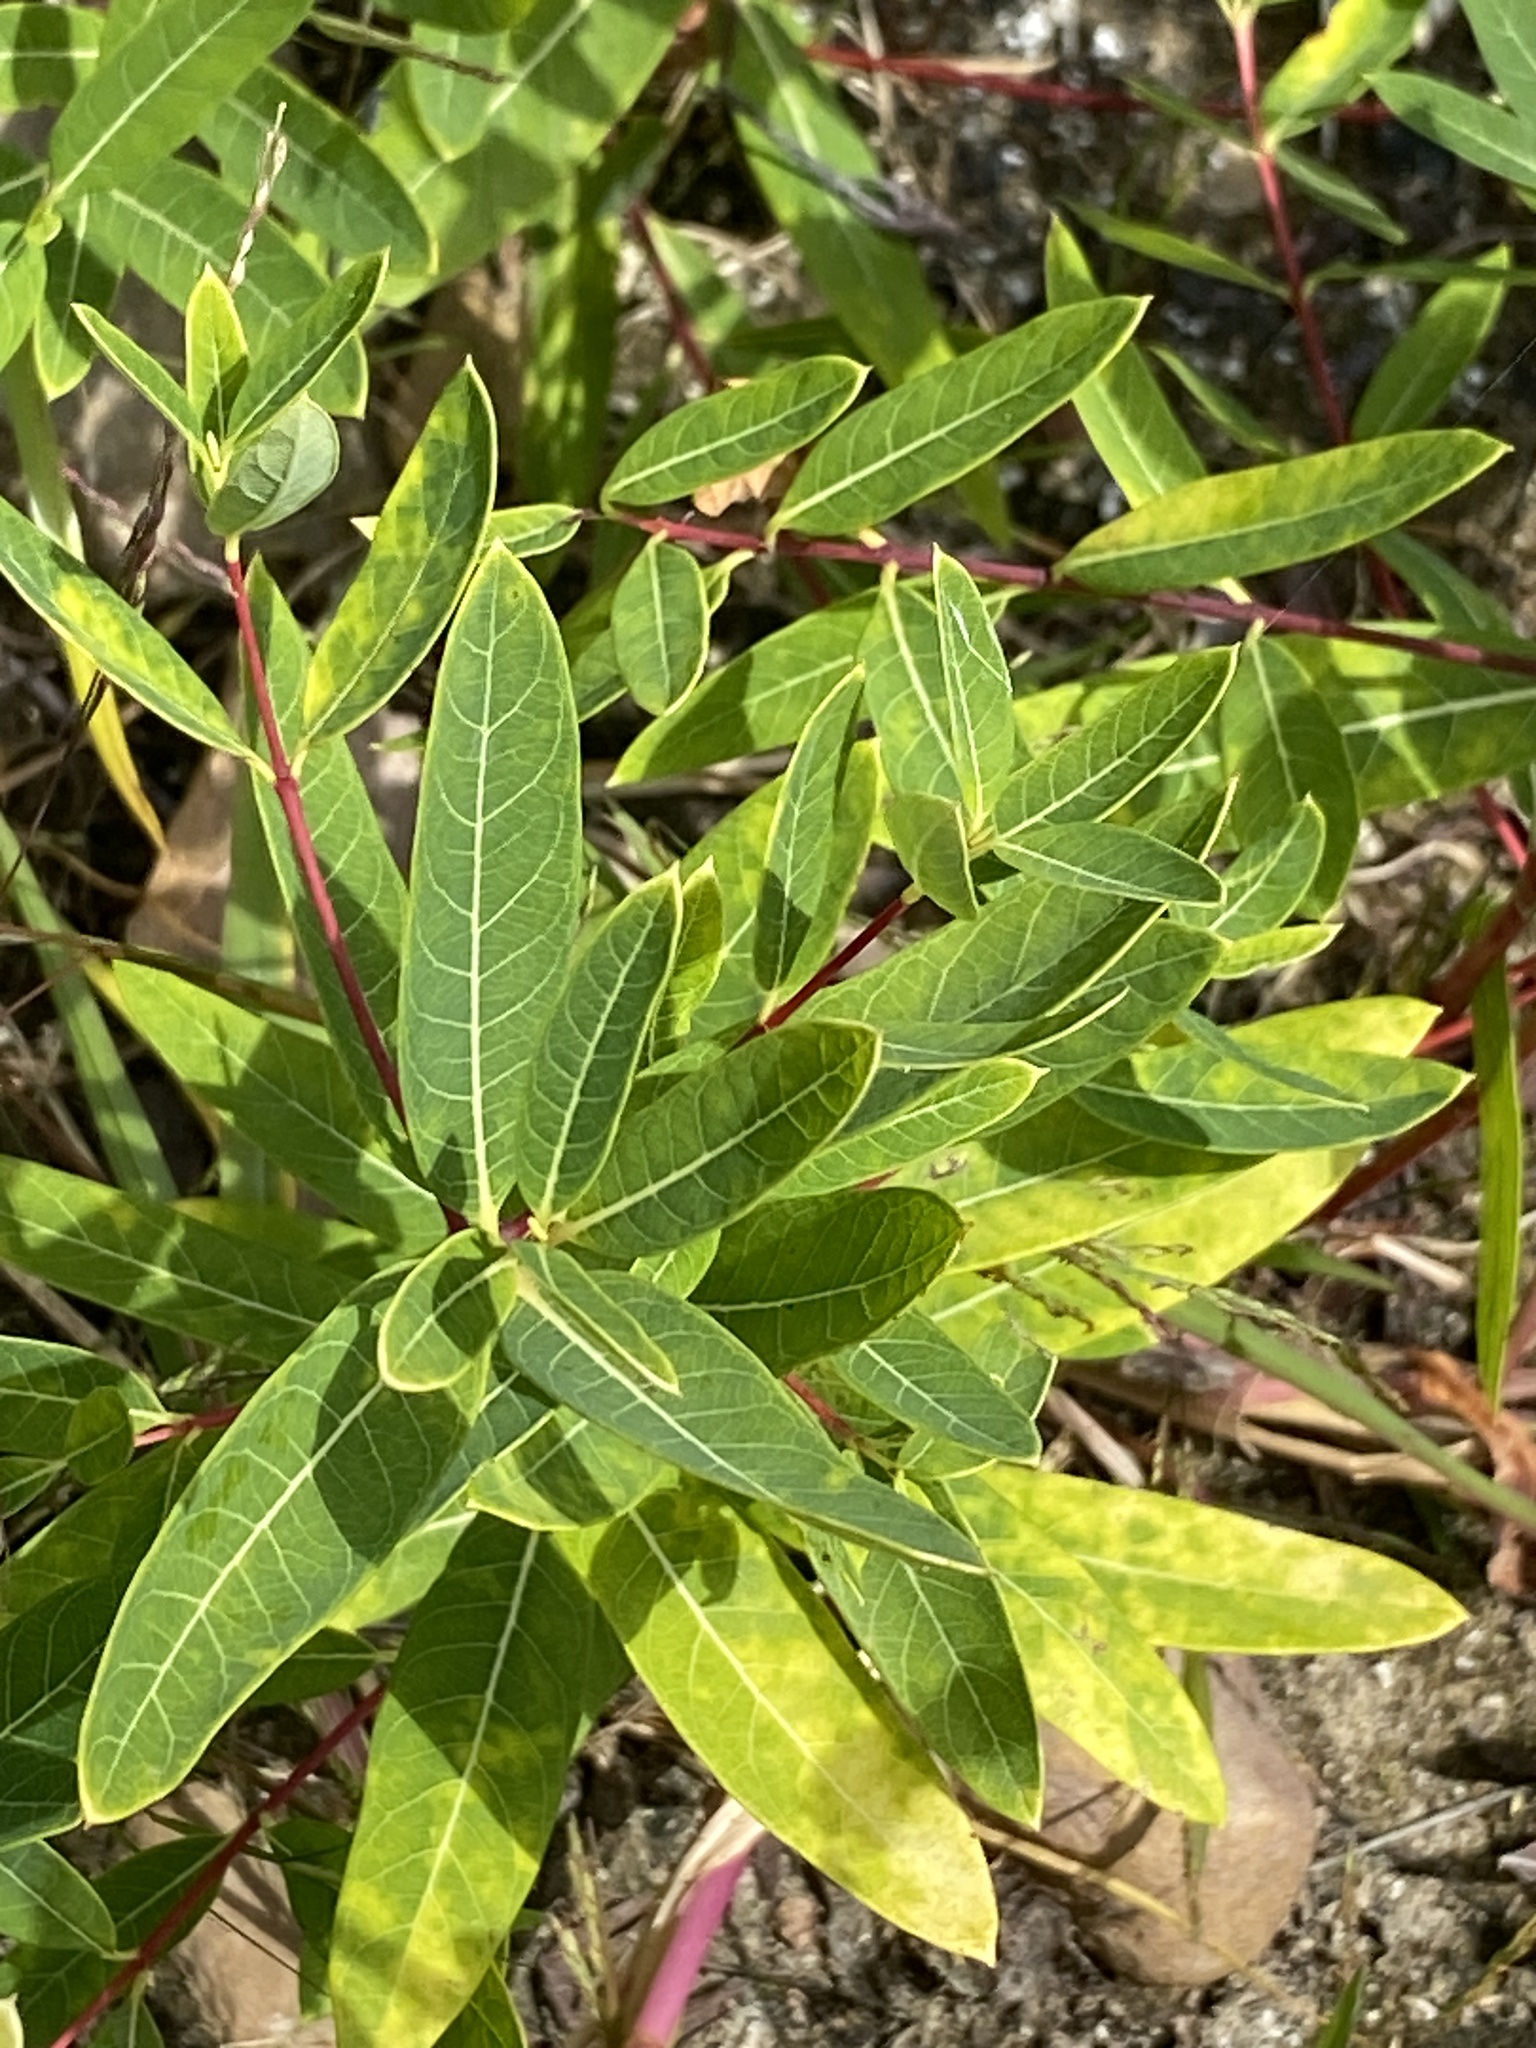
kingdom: Plantae
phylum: Tracheophyta
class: Magnoliopsida
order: Gentianales
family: Apocynaceae
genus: Apocynum
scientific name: Apocynum cannabinum
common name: Hemp dogbane
